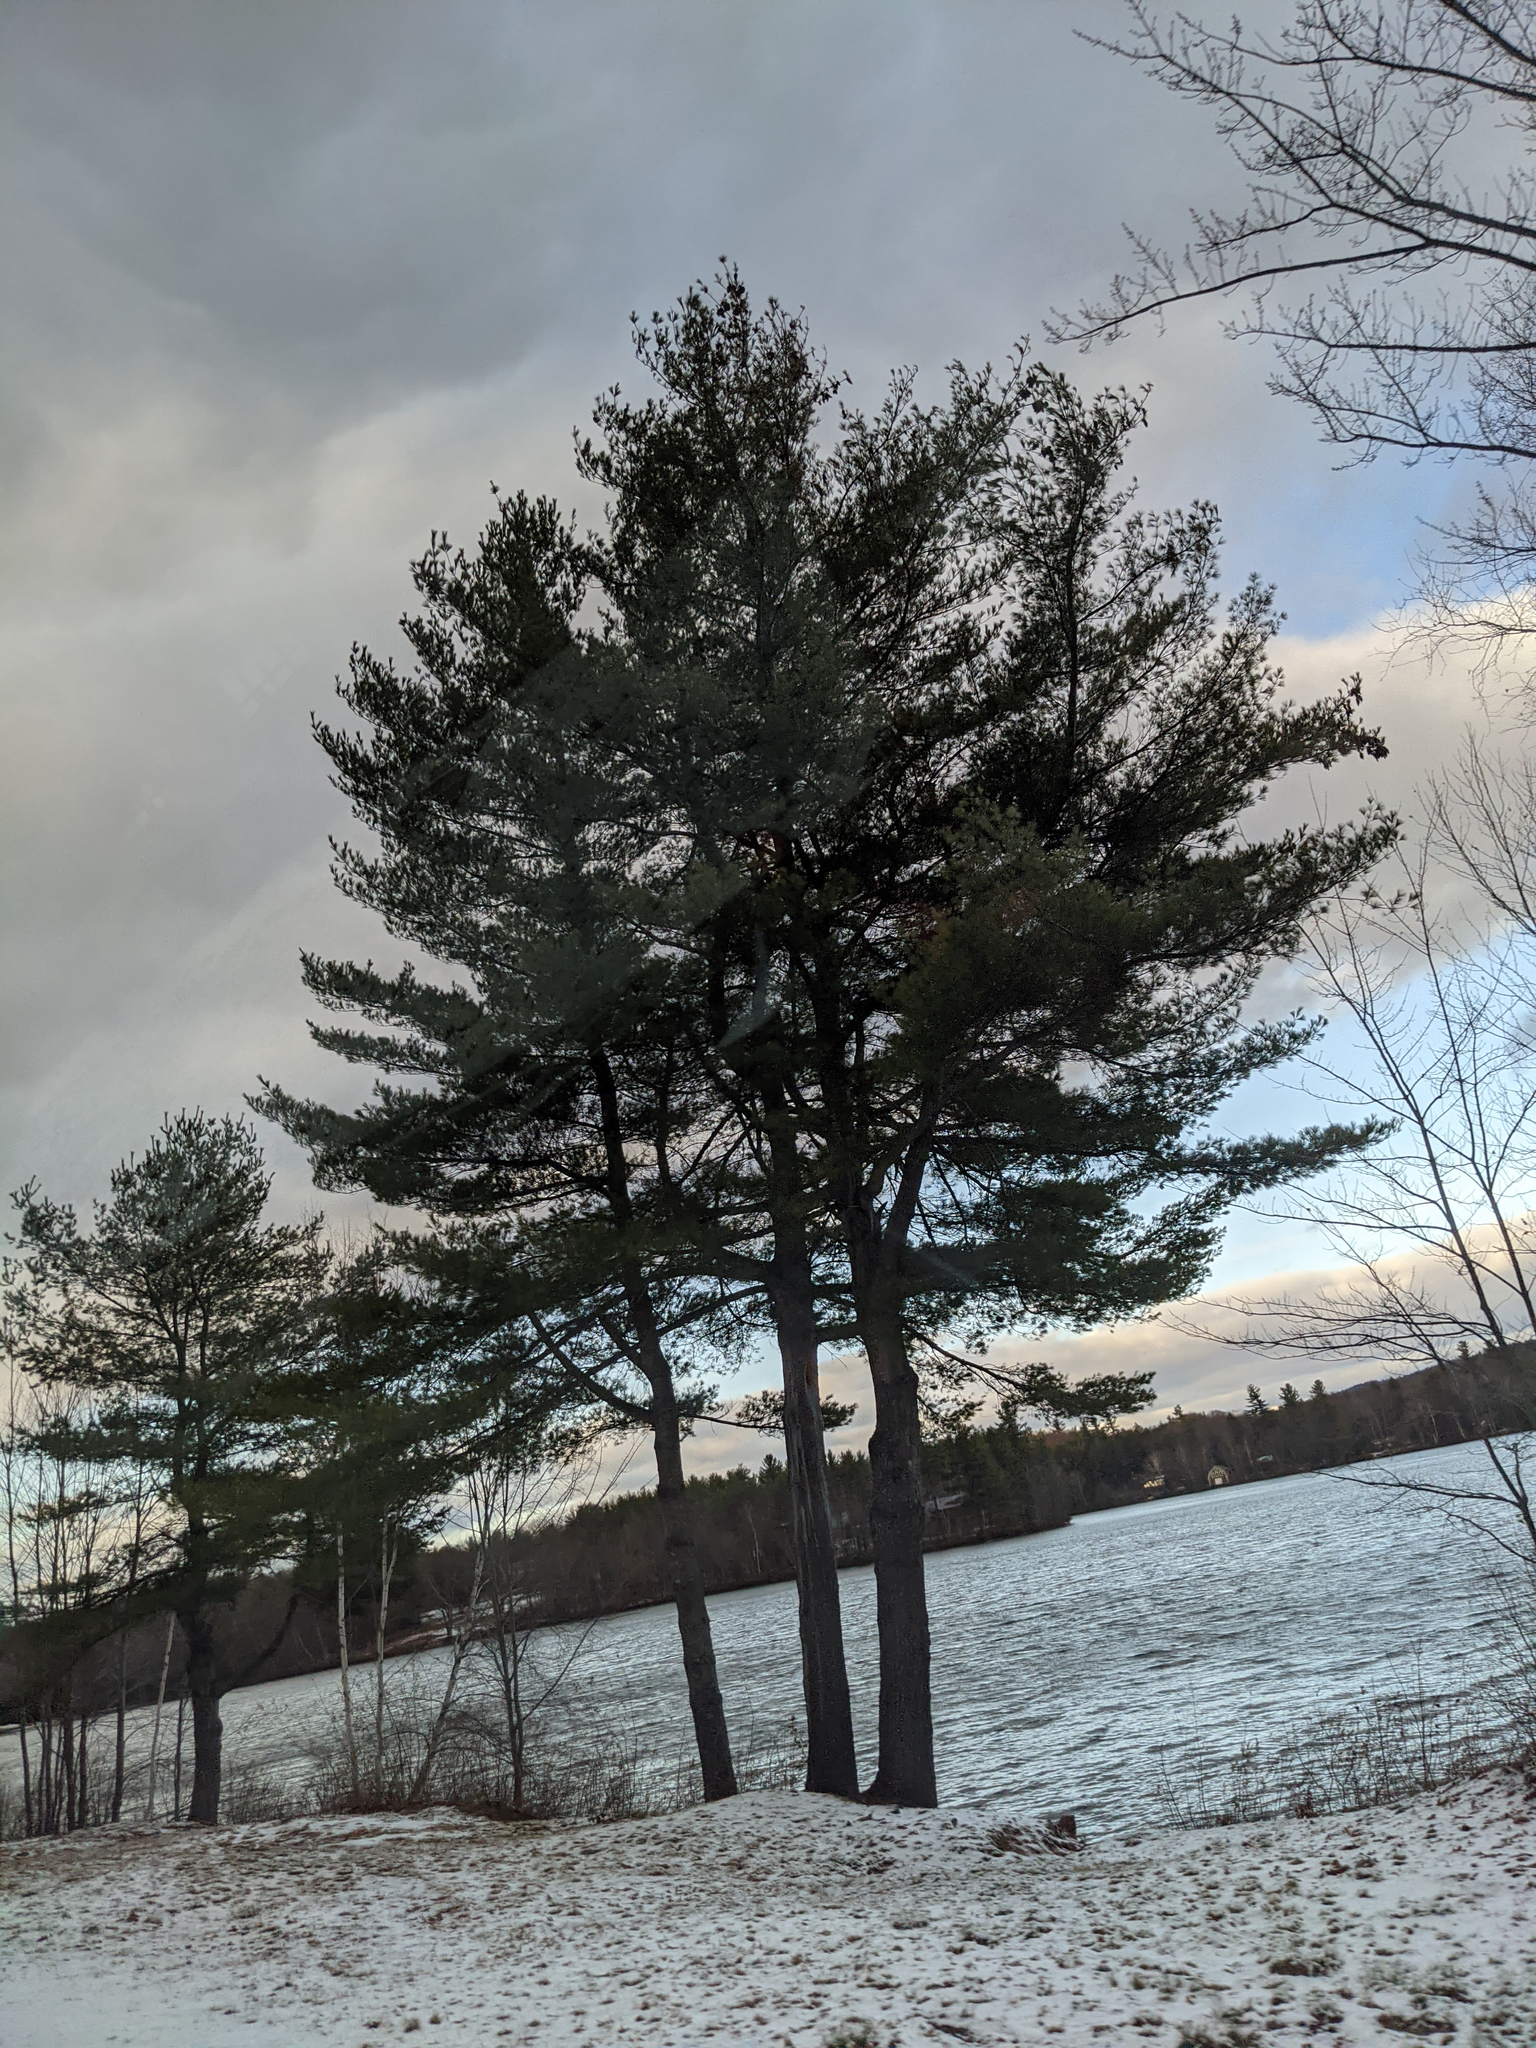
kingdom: Plantae
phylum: Tracheophyta
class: Pinopsida
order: Pinales
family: Pinaceae
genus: Pinus
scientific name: Pinus strobus
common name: Weymouth pine
